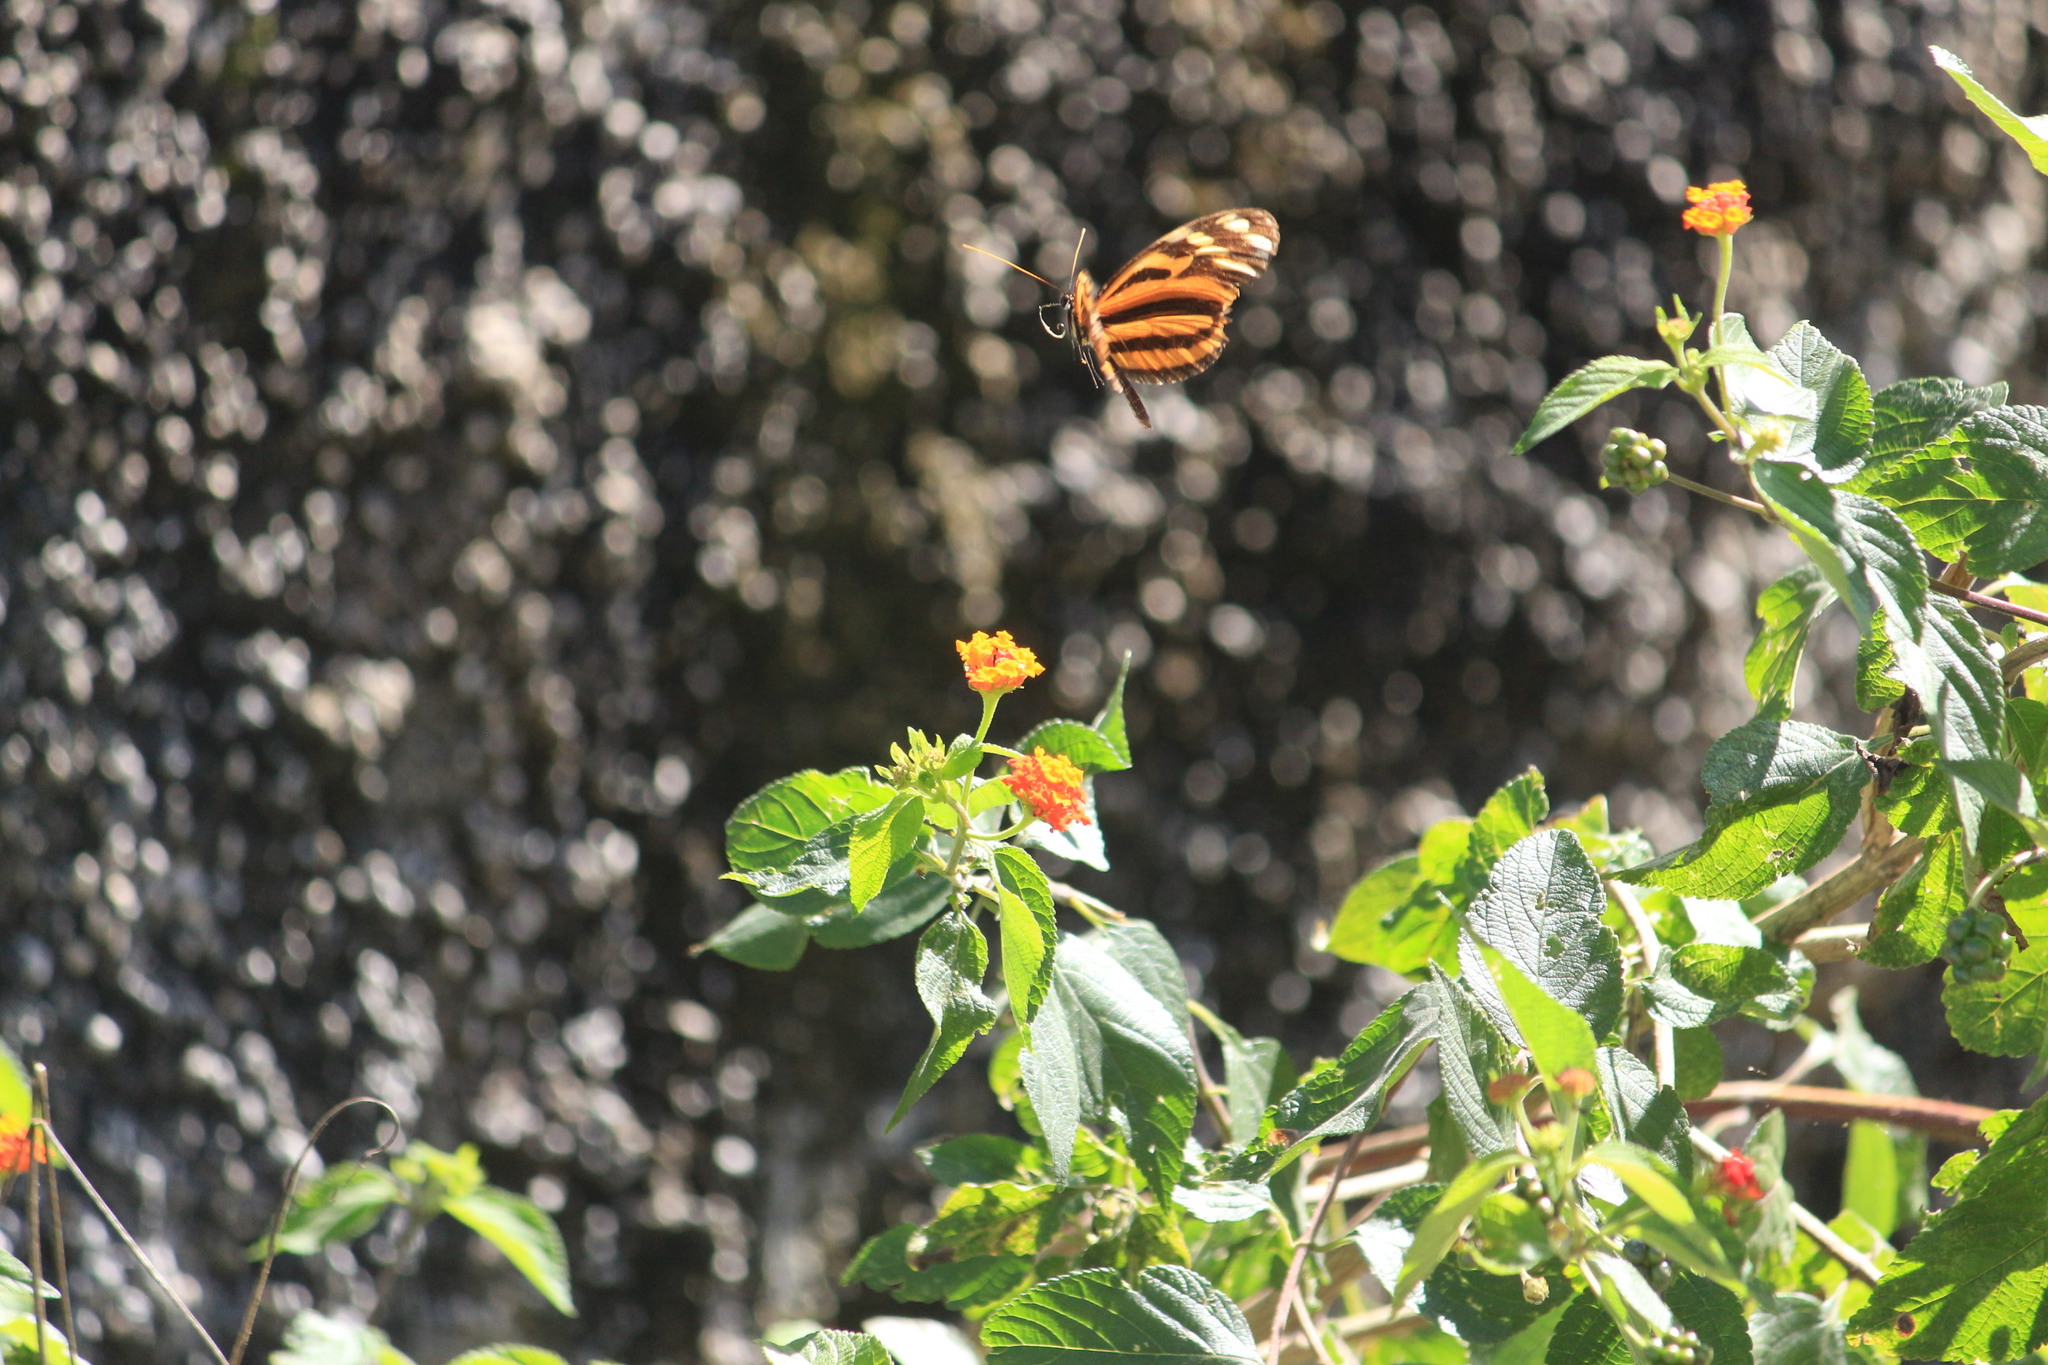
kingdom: Animalia
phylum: Arthropoda
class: Insecta
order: Lepidoptera
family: Nymphalidae
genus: Heliconius
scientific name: Heliconius ismenius
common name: Ismenius tiger
